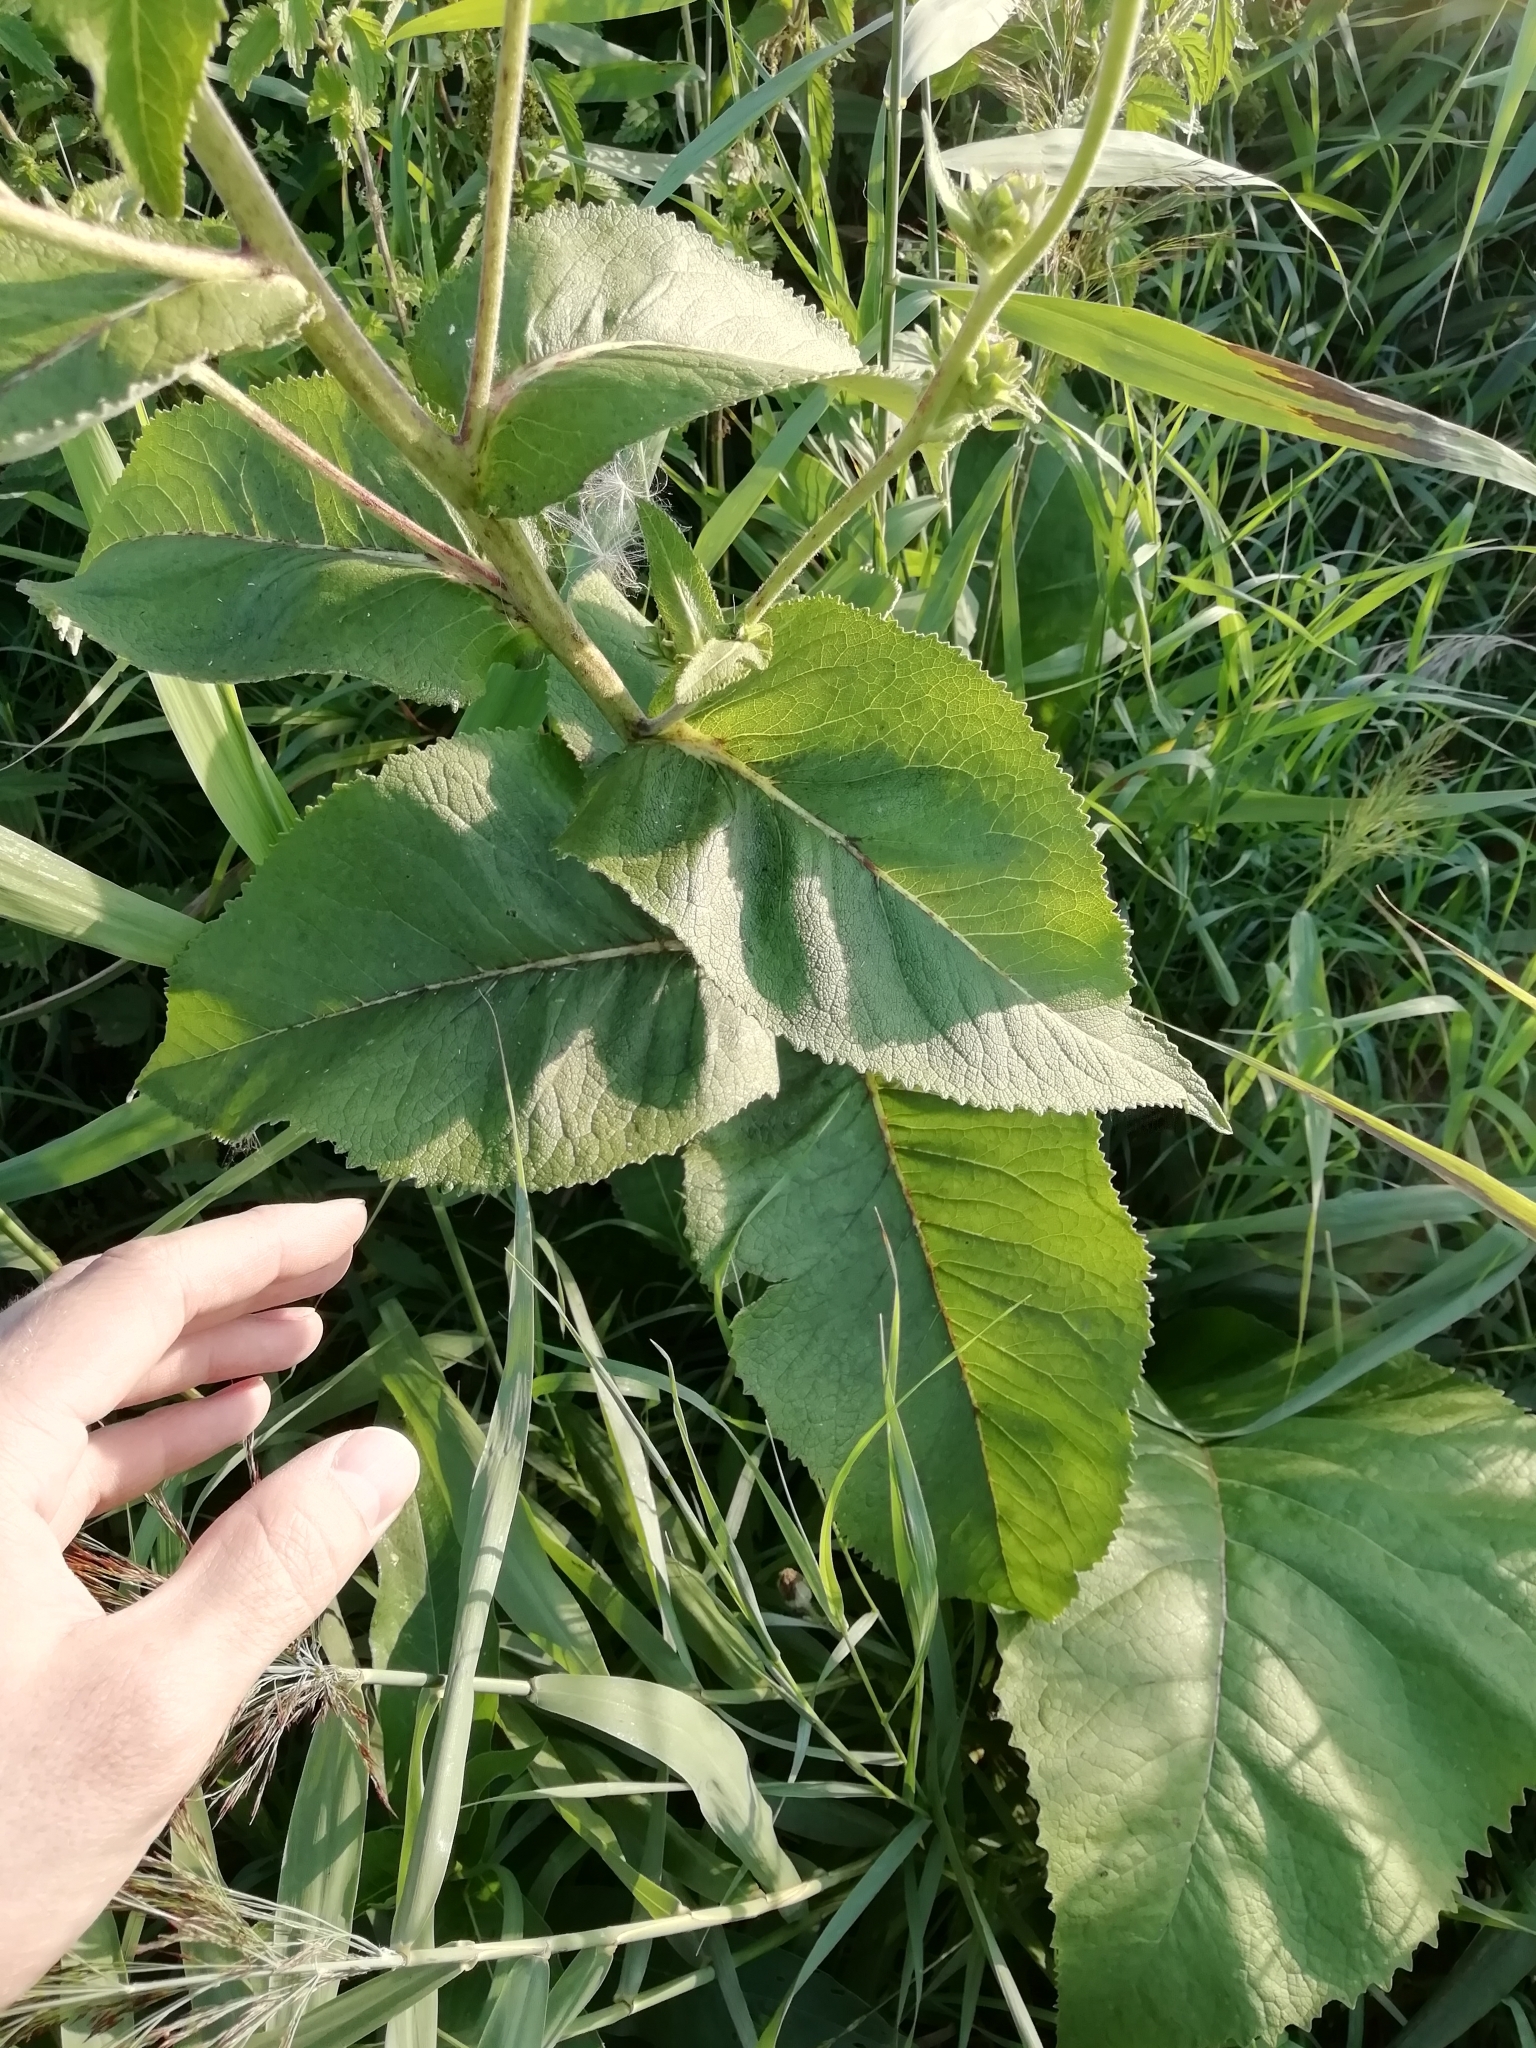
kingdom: Plantae
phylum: Tracheophyta
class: Magnoliopsida
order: Asterales
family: Asteraceae
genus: Inula
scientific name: Inula helenium
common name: Elecampane
